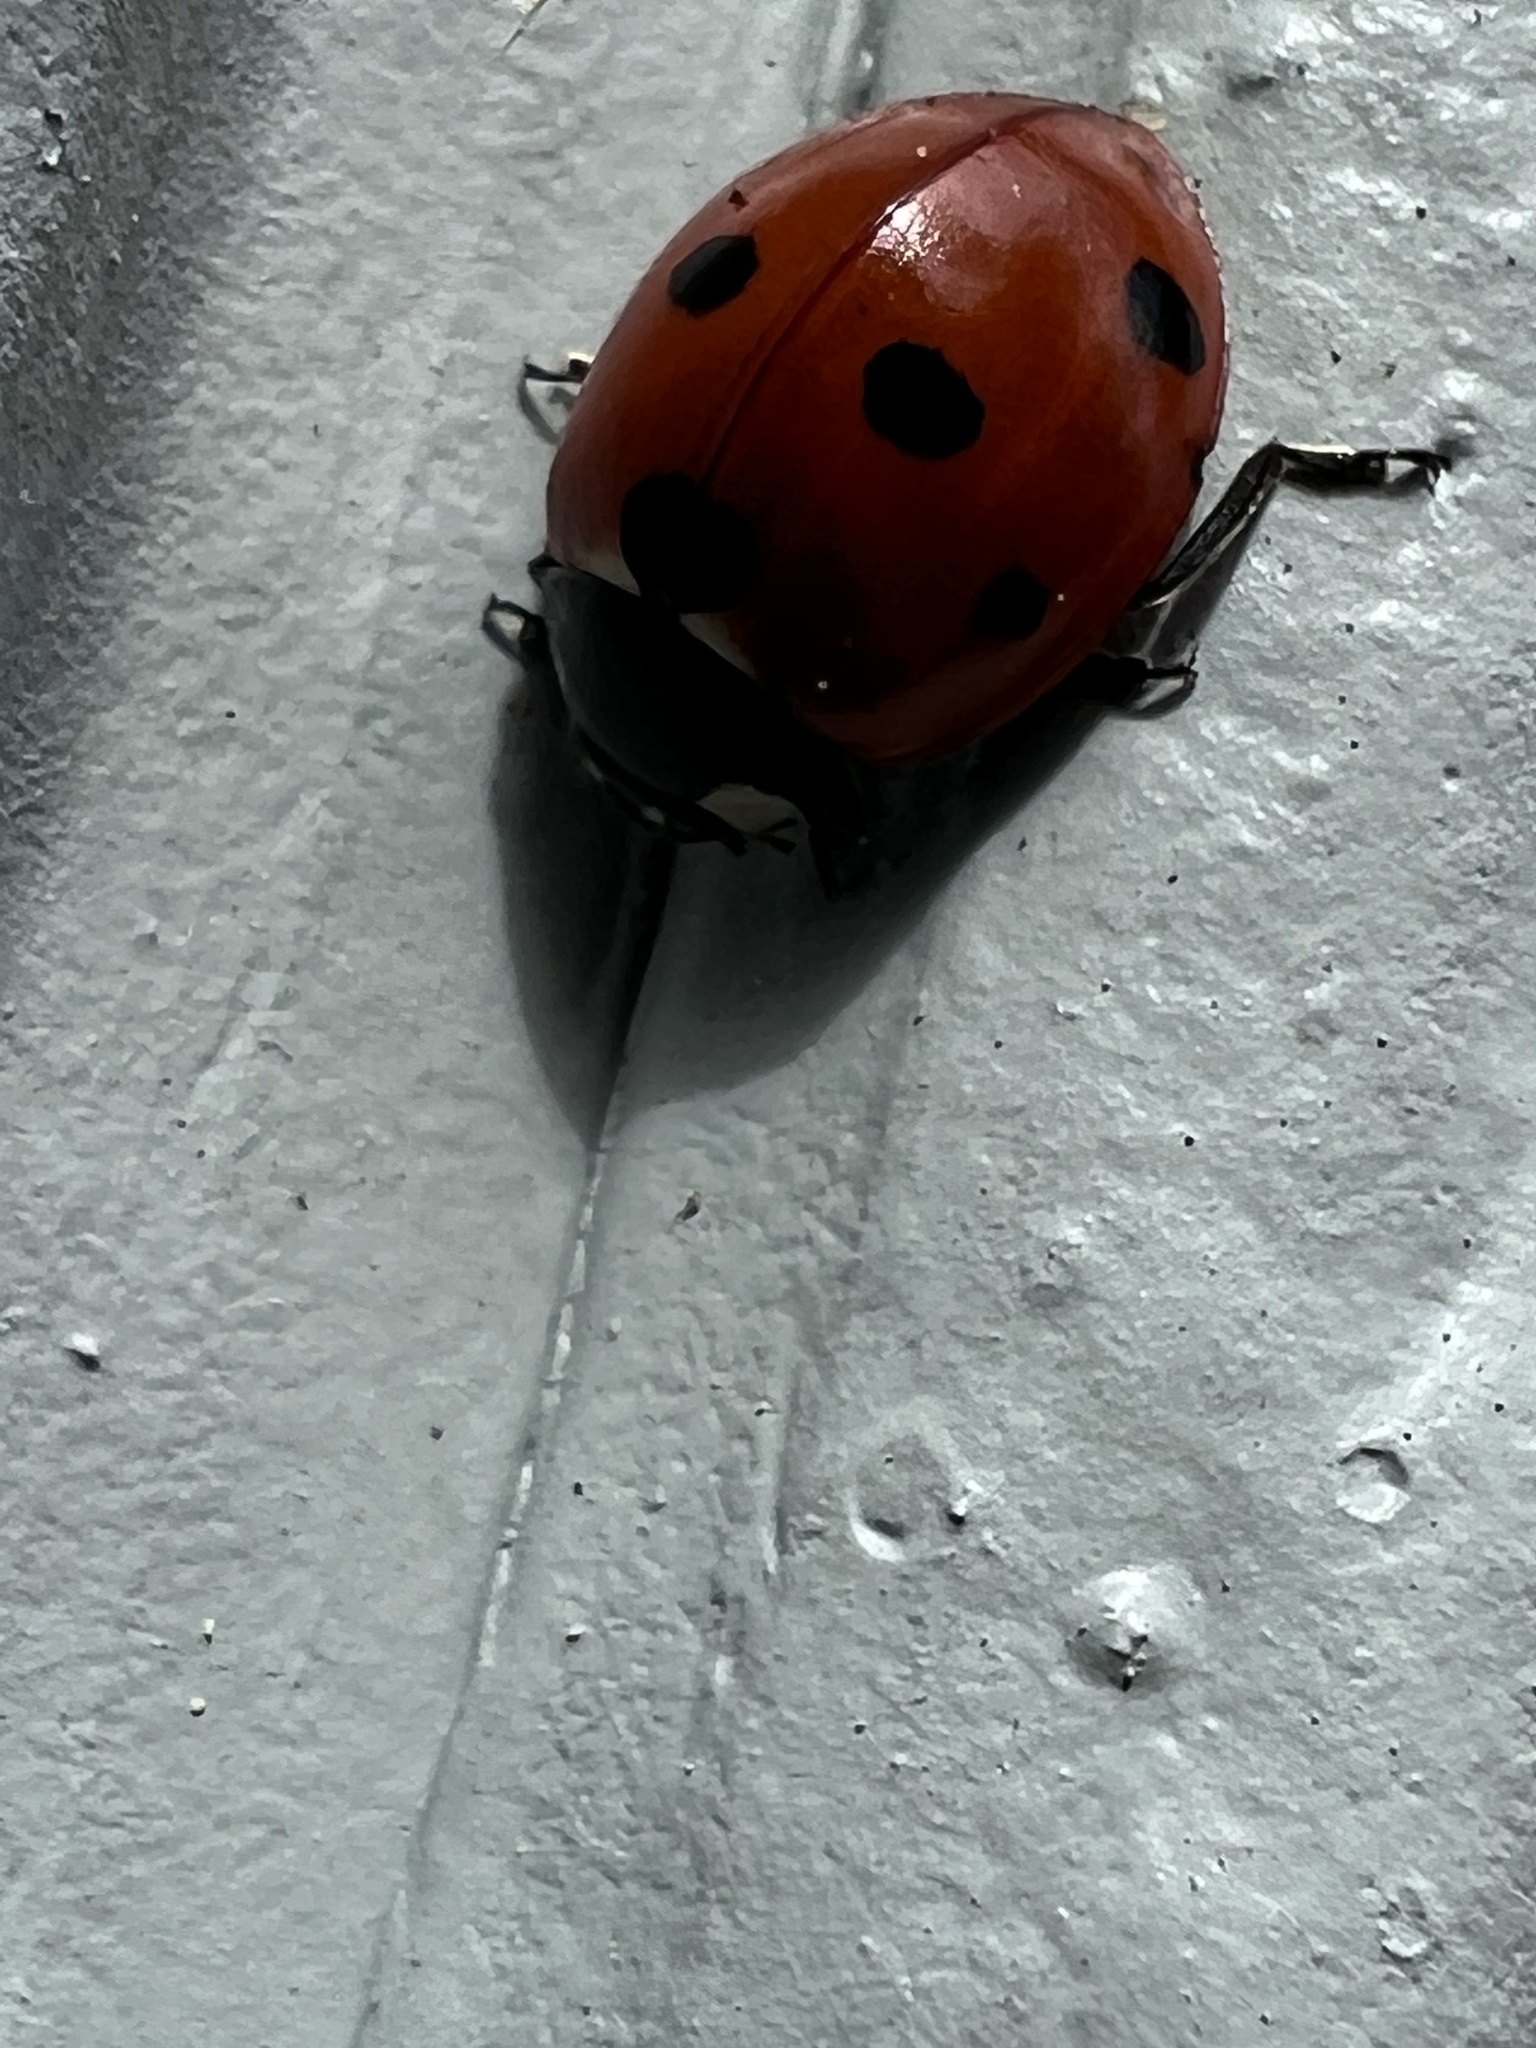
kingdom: Animalia
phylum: Arthropoda
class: Insecta
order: Coleoptera
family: Coccinellidae
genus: Coccinella
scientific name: Coccinella septempunctata
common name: Sevenspotted lady beetle
